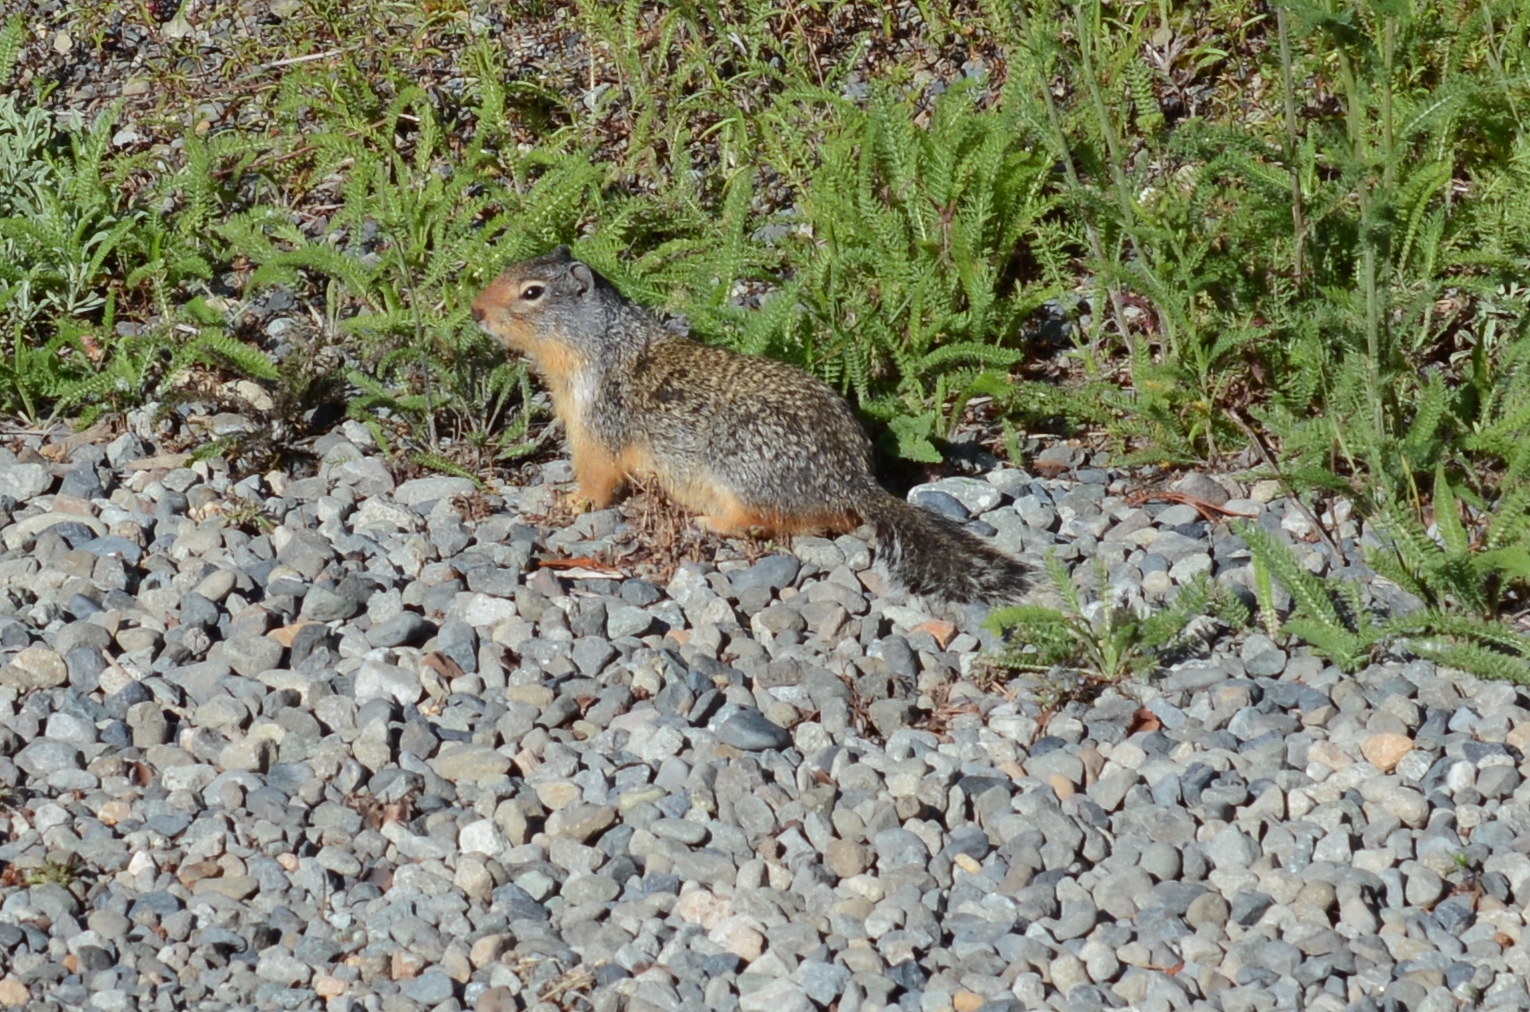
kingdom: Animalia
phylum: Chordata
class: Mammalia
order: Rodentia
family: Sciuridae
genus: Urocitellus
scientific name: Urocitellus columbianus
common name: Columbian ground squirrel
